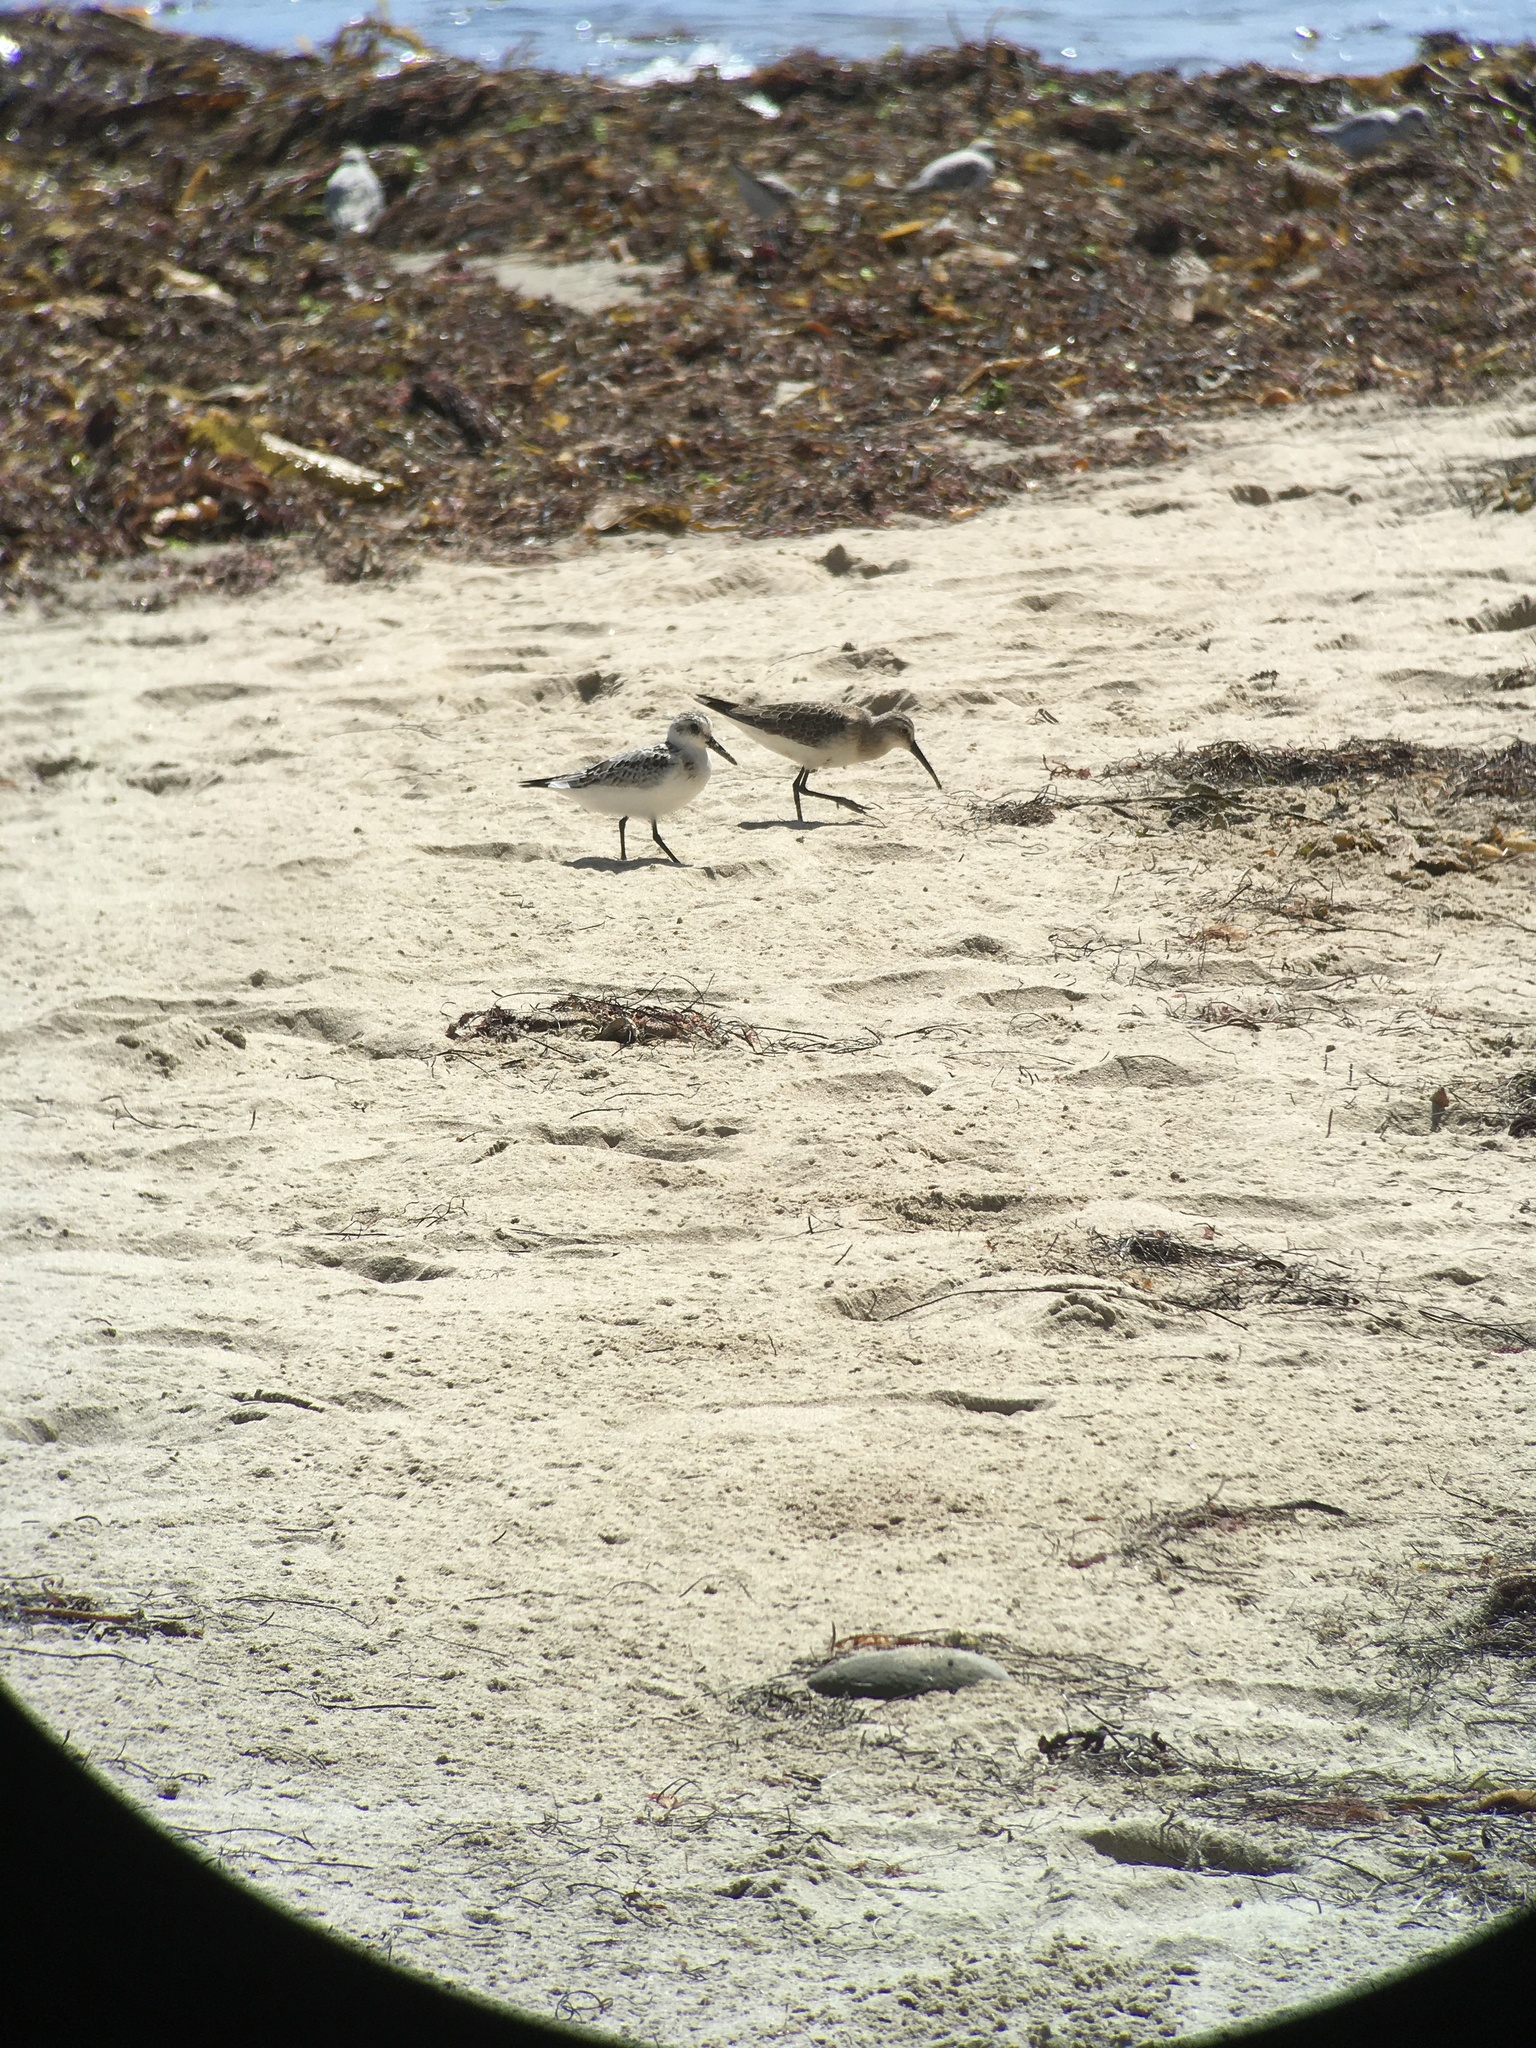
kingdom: Animalia
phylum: Chordata
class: Aves
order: Charadriiformes
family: Scolopacidae
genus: Calidris
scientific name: Calidris ferruginea
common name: Curlew sandpiper
